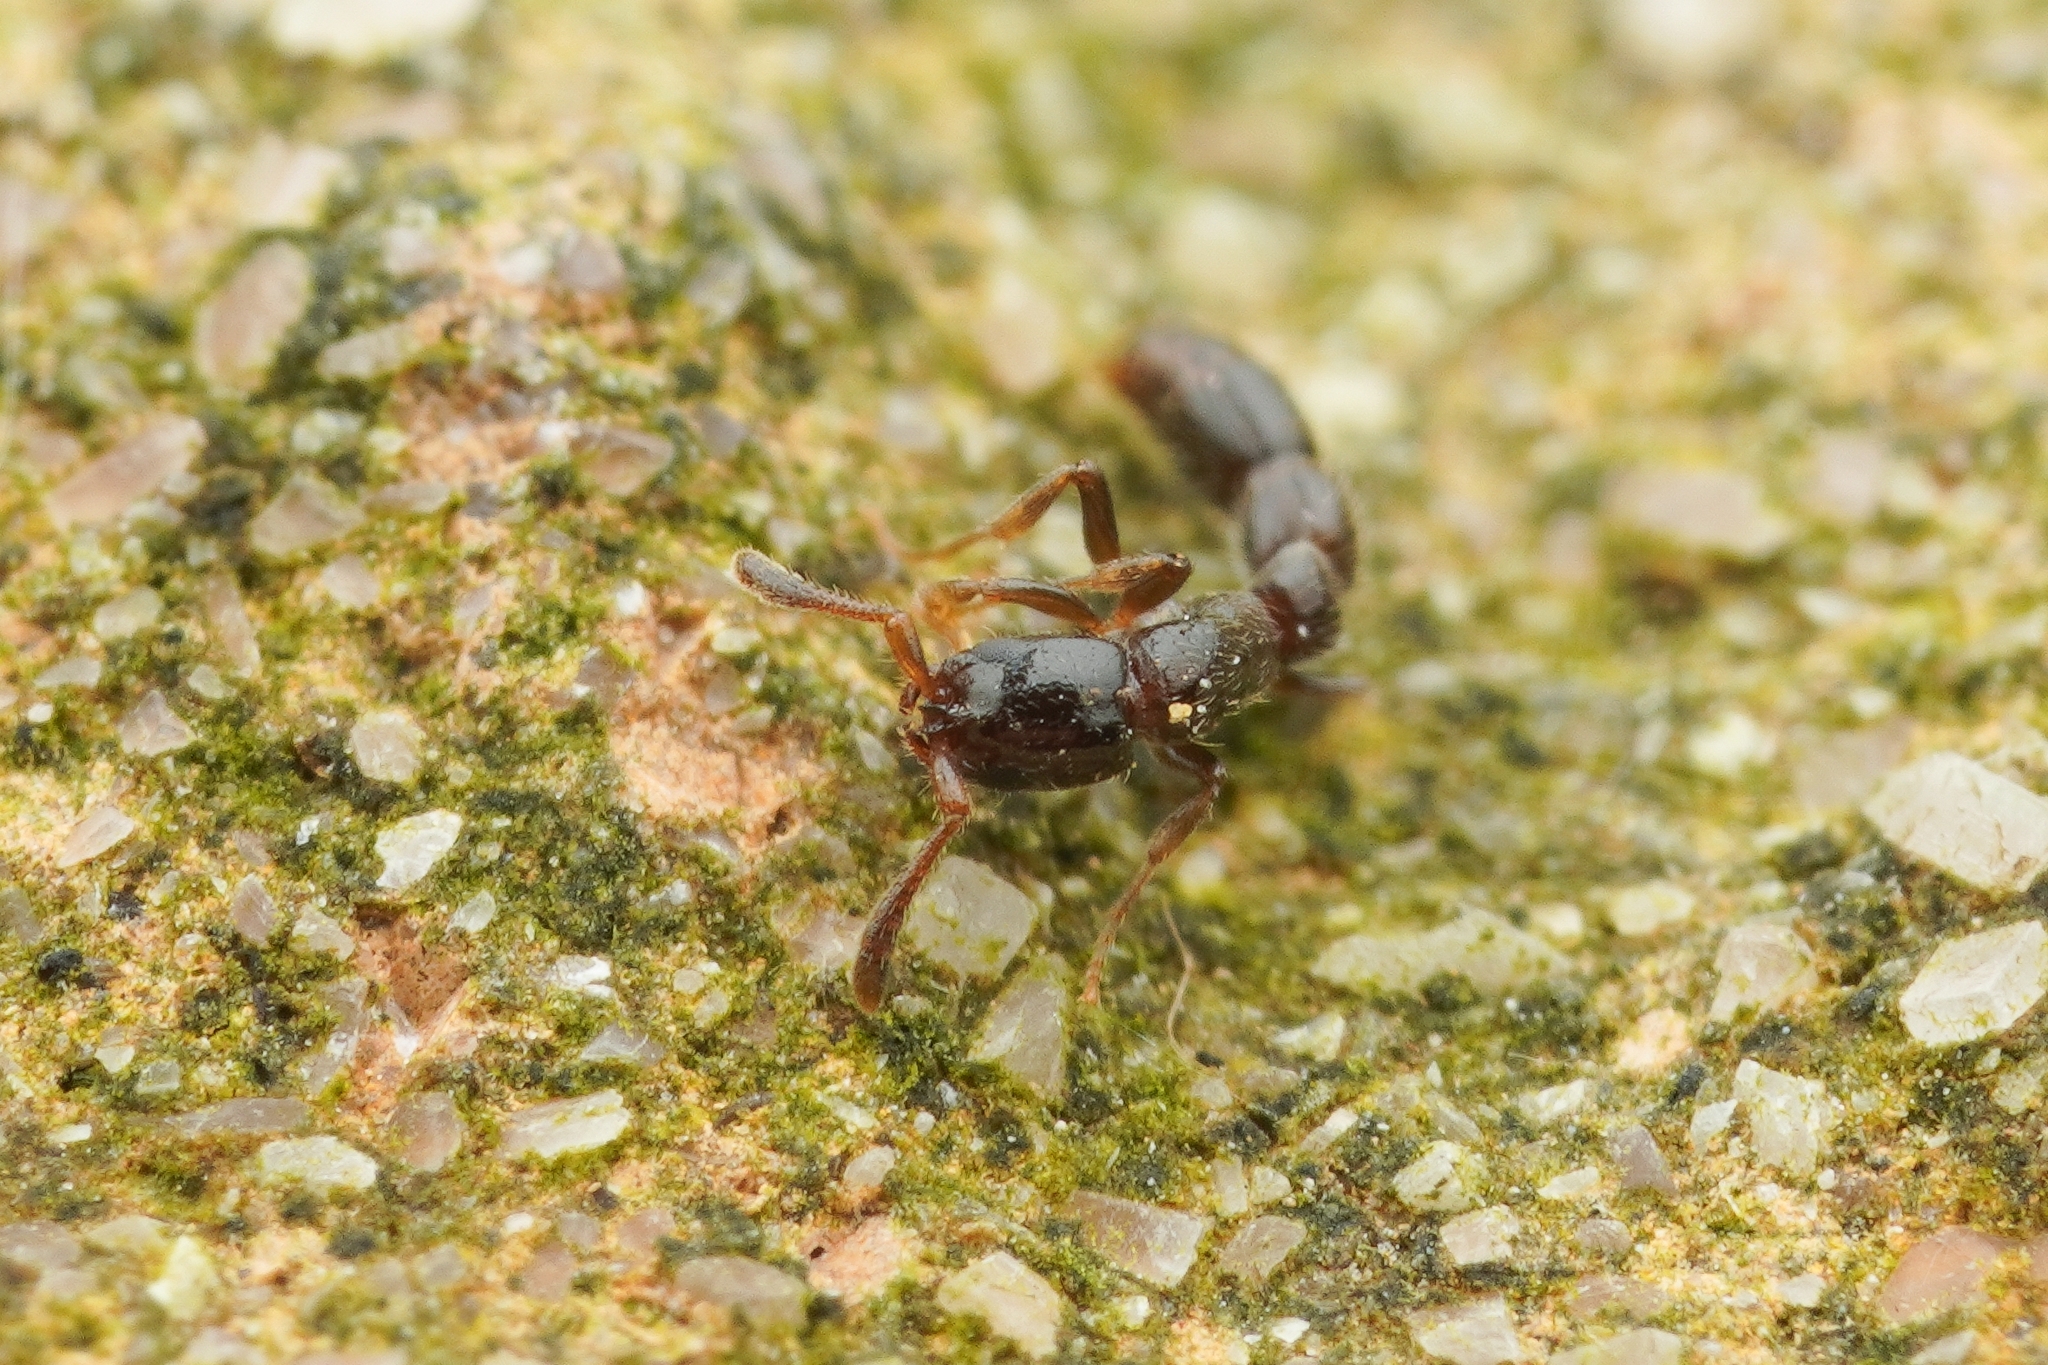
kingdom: Animalia
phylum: Arthropoda
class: Insecta
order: Hymenoptera
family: Formicidae
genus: Lioponera
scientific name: Lioponera
